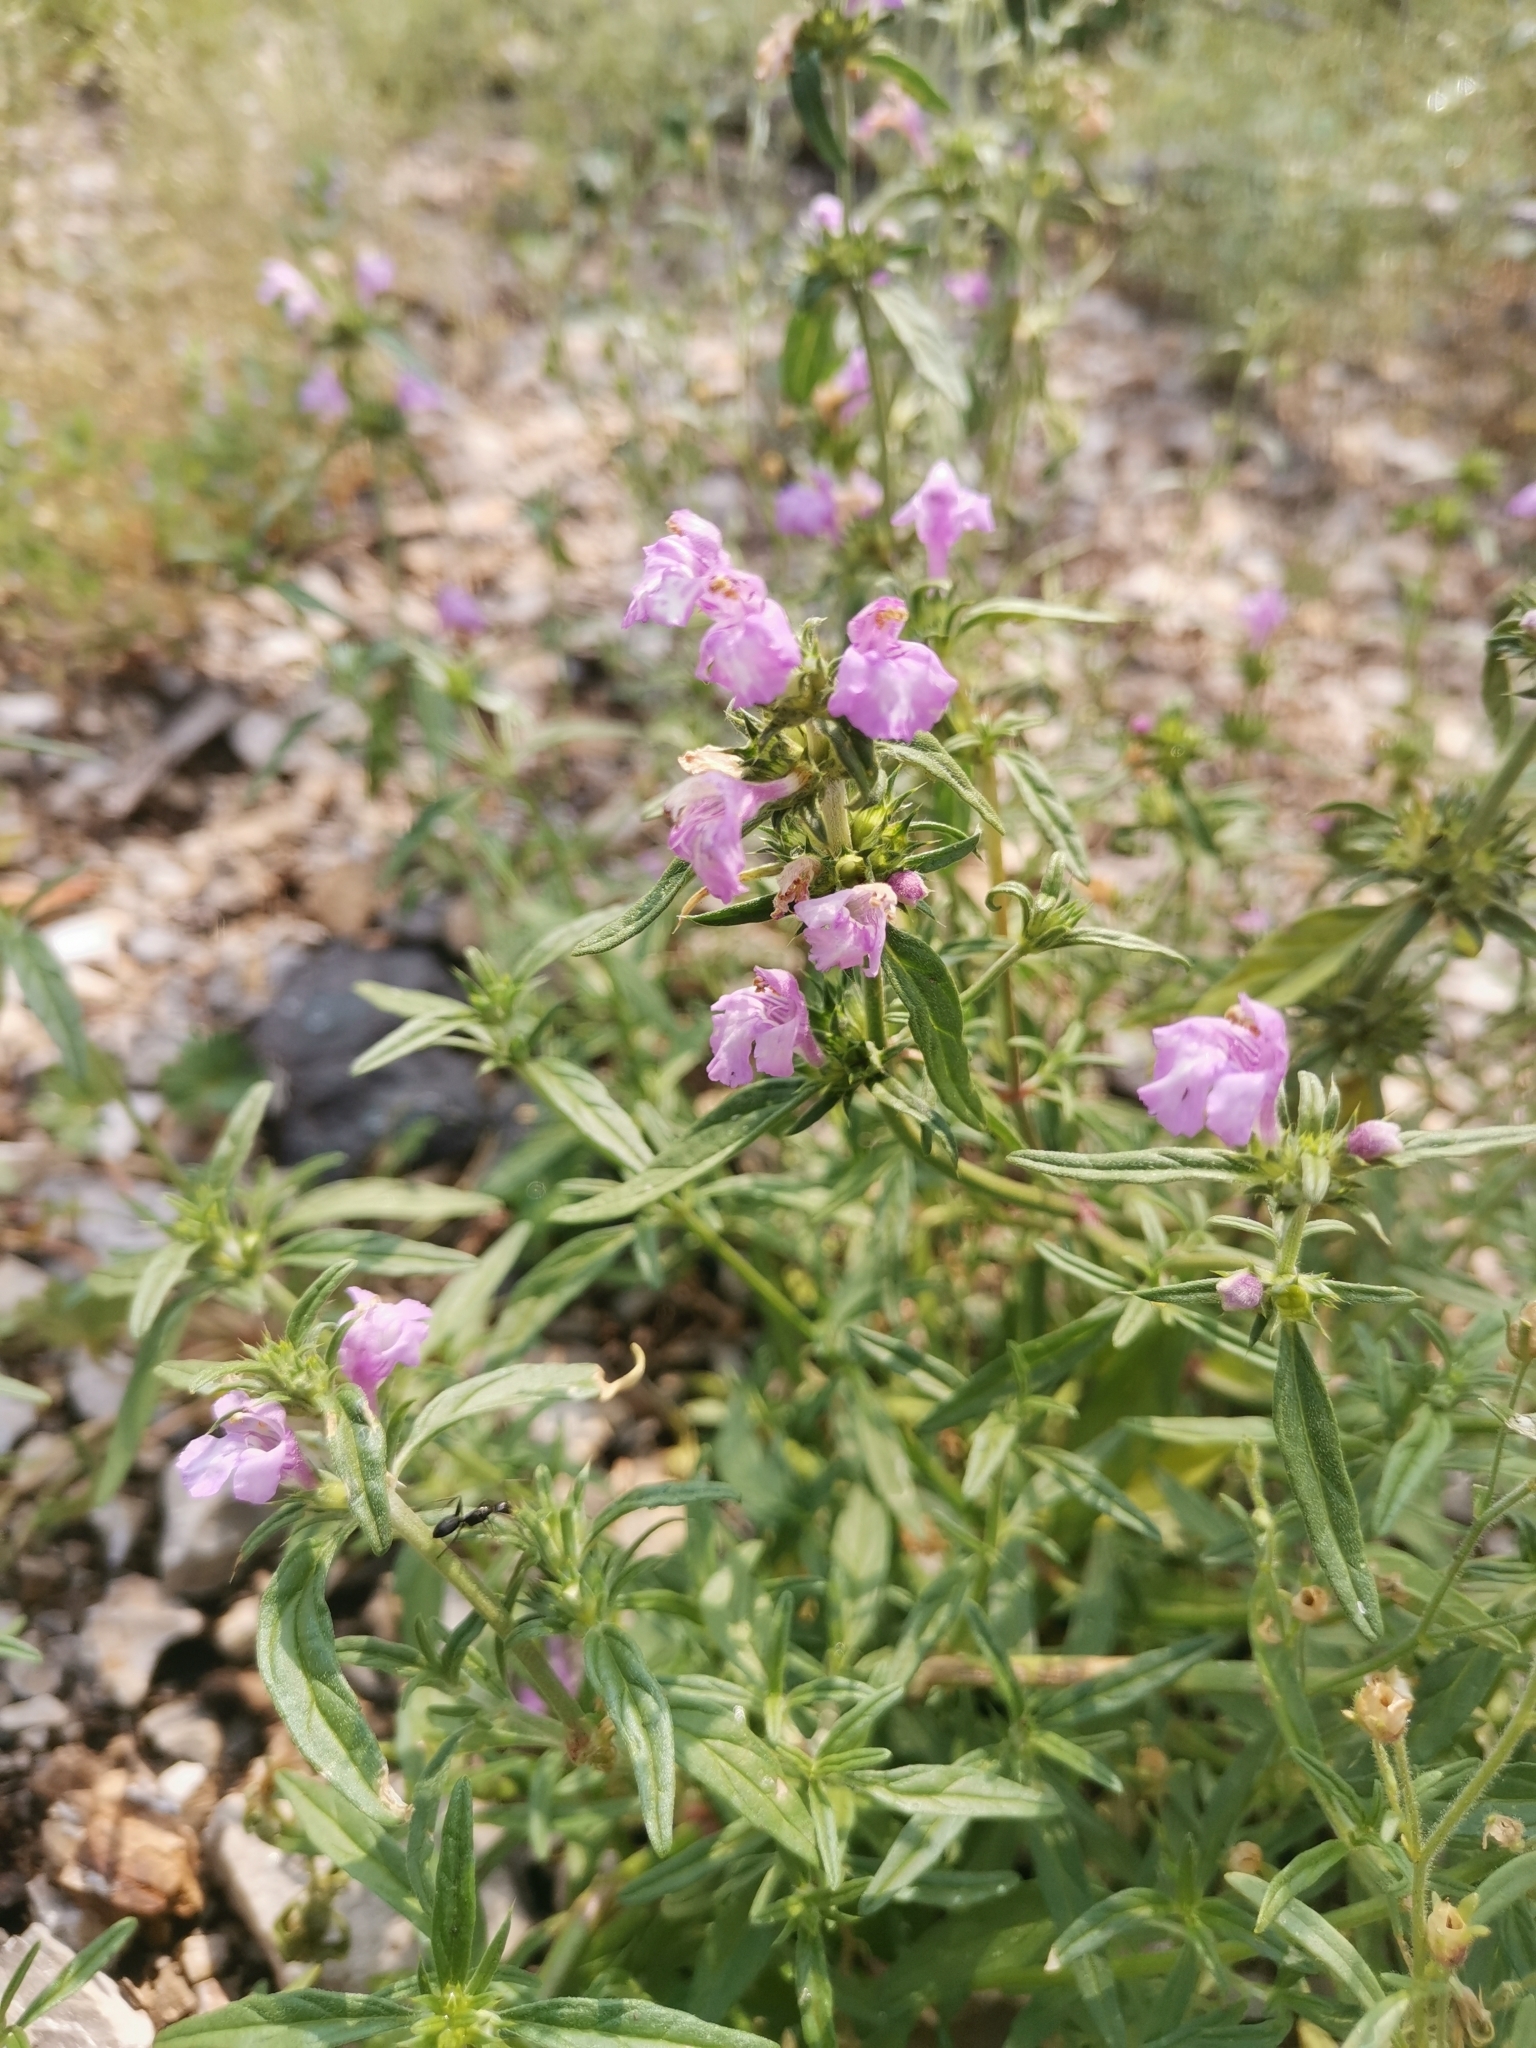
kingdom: Plantae
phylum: Tracheophyta
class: Magnoliopsida
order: Lamiales
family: Lamiaceae
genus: Galeopsis
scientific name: Galeopsis angustifolia
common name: Red hemp-nettle
